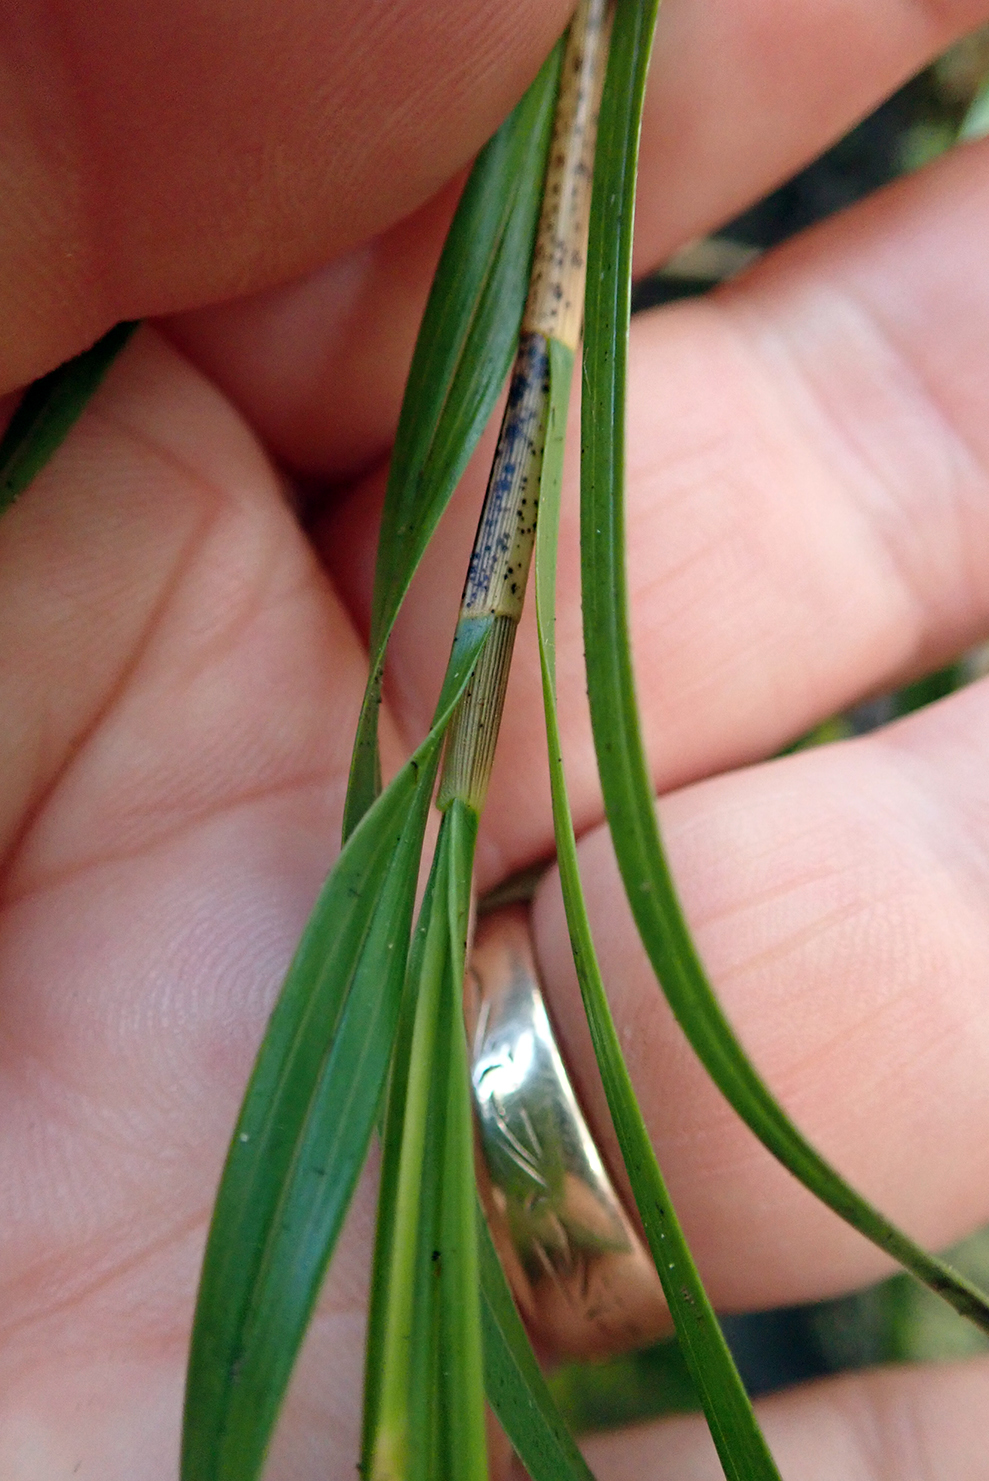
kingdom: Plantae
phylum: Tracheophyta
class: Liliopsida
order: Asparagales
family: Orchidaceae
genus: Earina
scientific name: Earina mucronata
